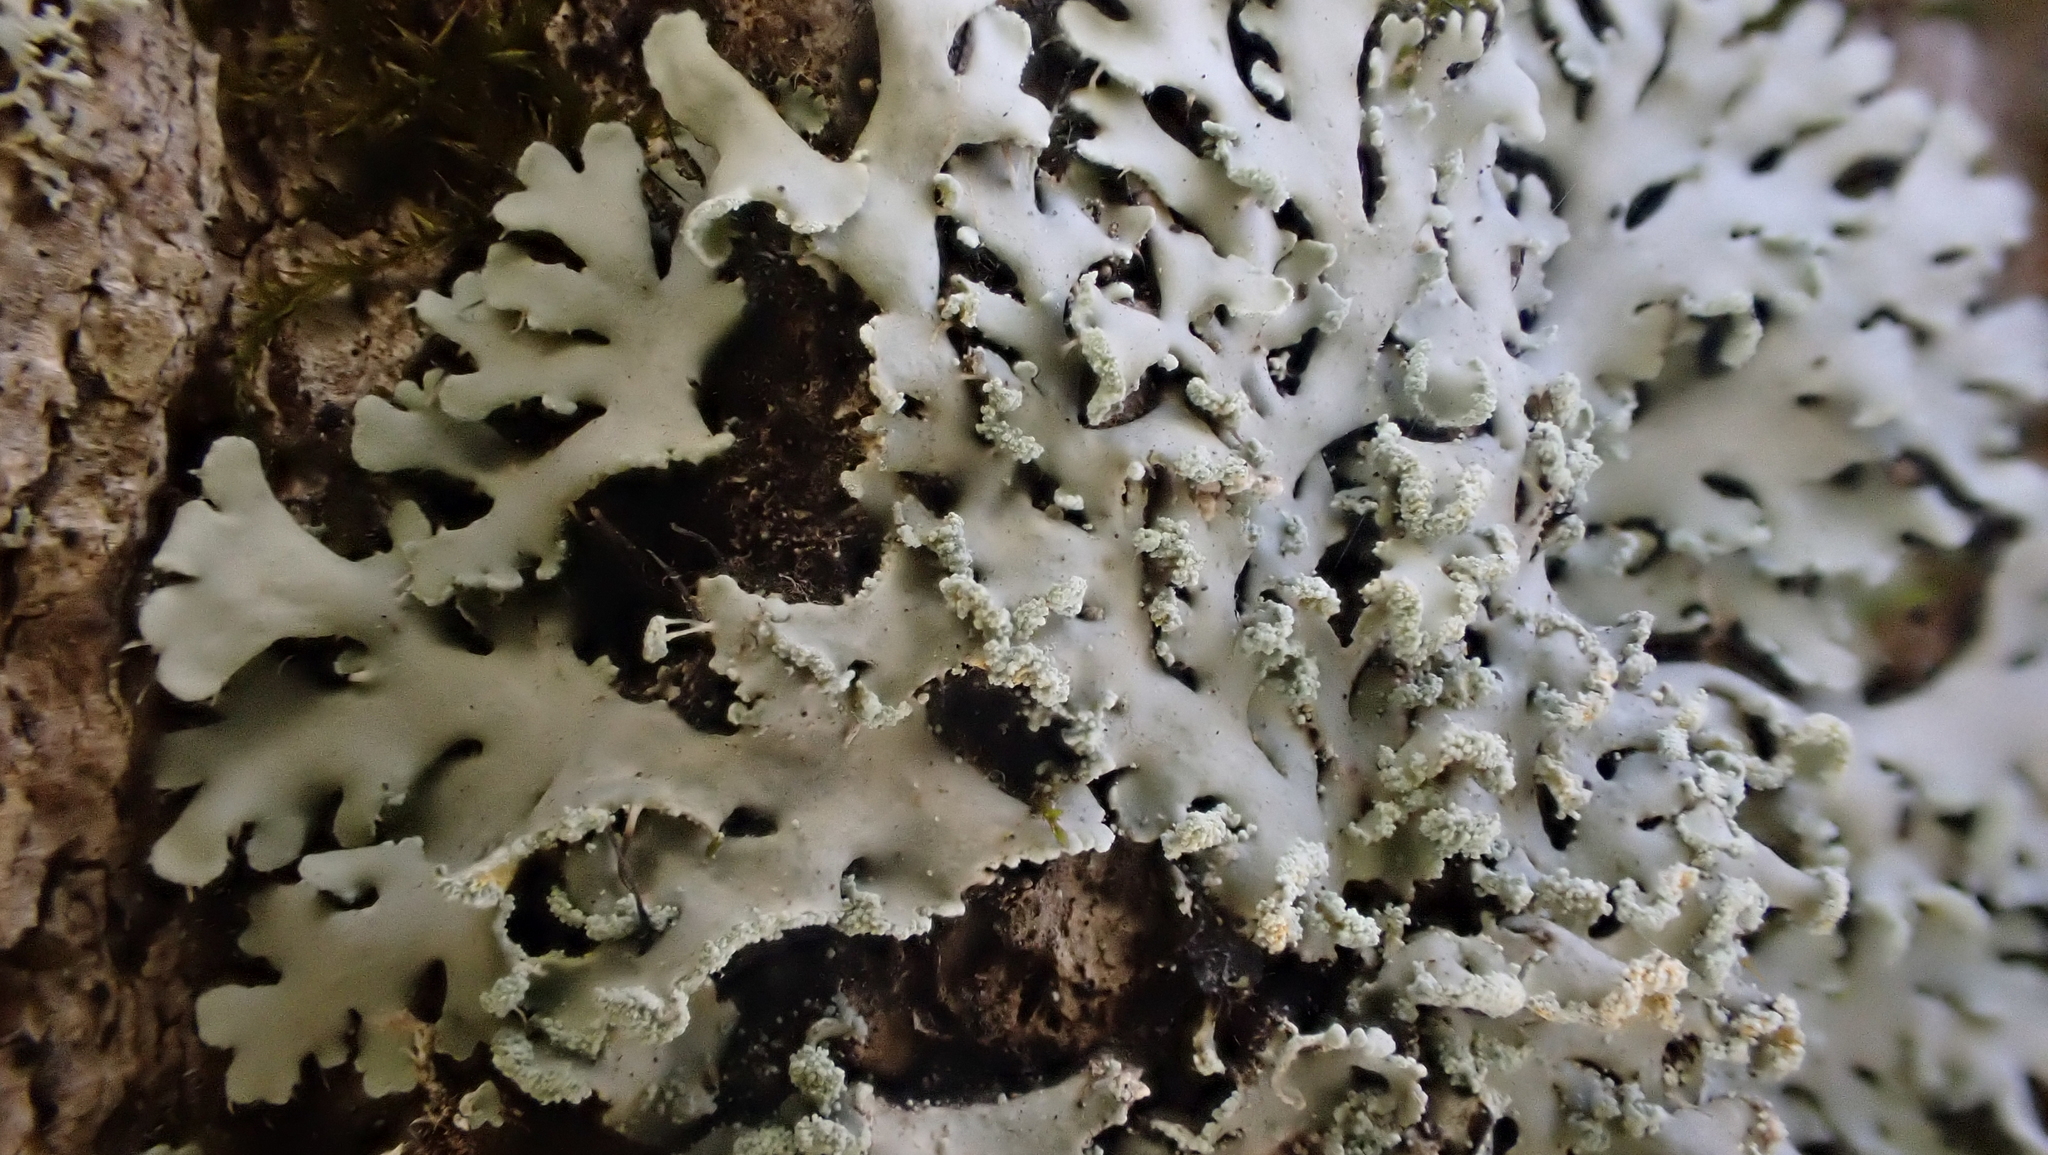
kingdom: Fungi
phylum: Ascomycota
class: Lecanoromycetes
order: Caliciales
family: Physciaceae
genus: Polyblastidium
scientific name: Polyblastidium albicans
